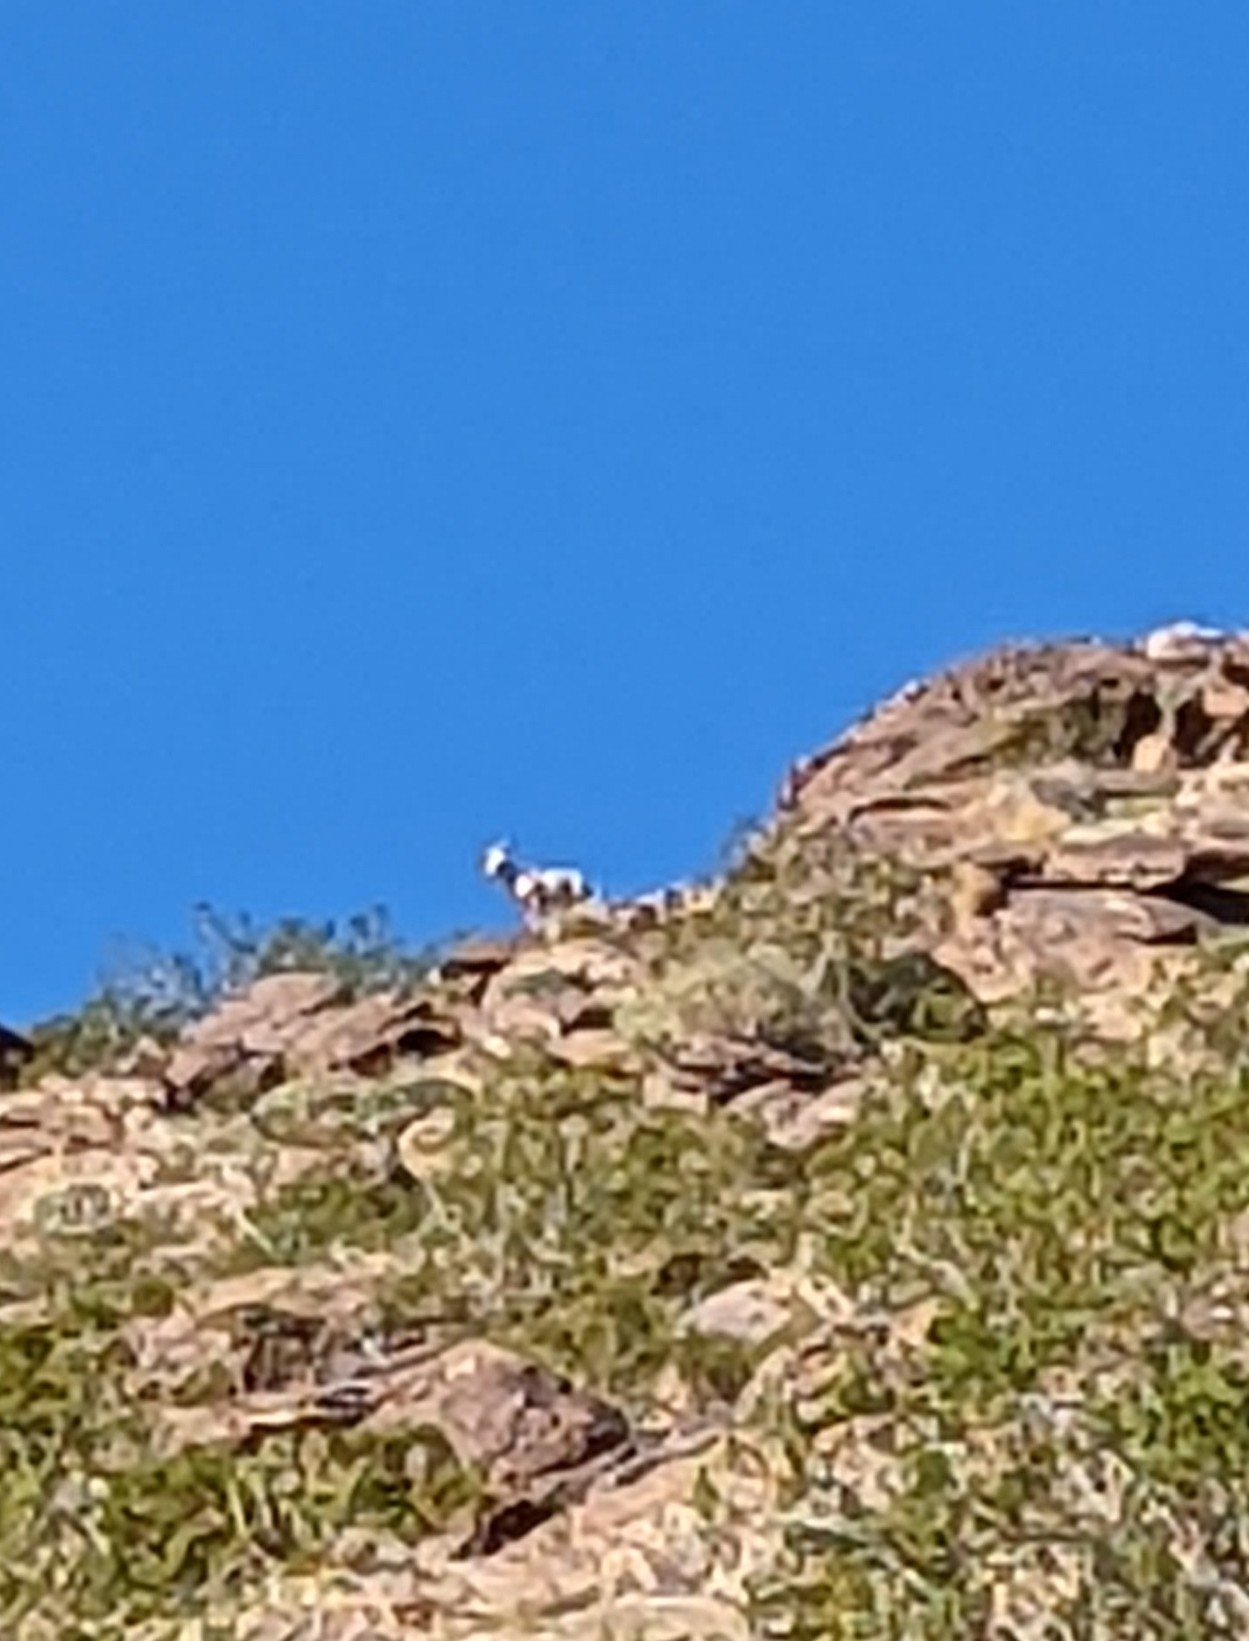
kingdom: Animalia
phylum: Chordata
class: Mammalia
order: Artiodactyla
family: Bovidae
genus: Ovis
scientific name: Ovis canadensis
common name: Bighorn sheep
